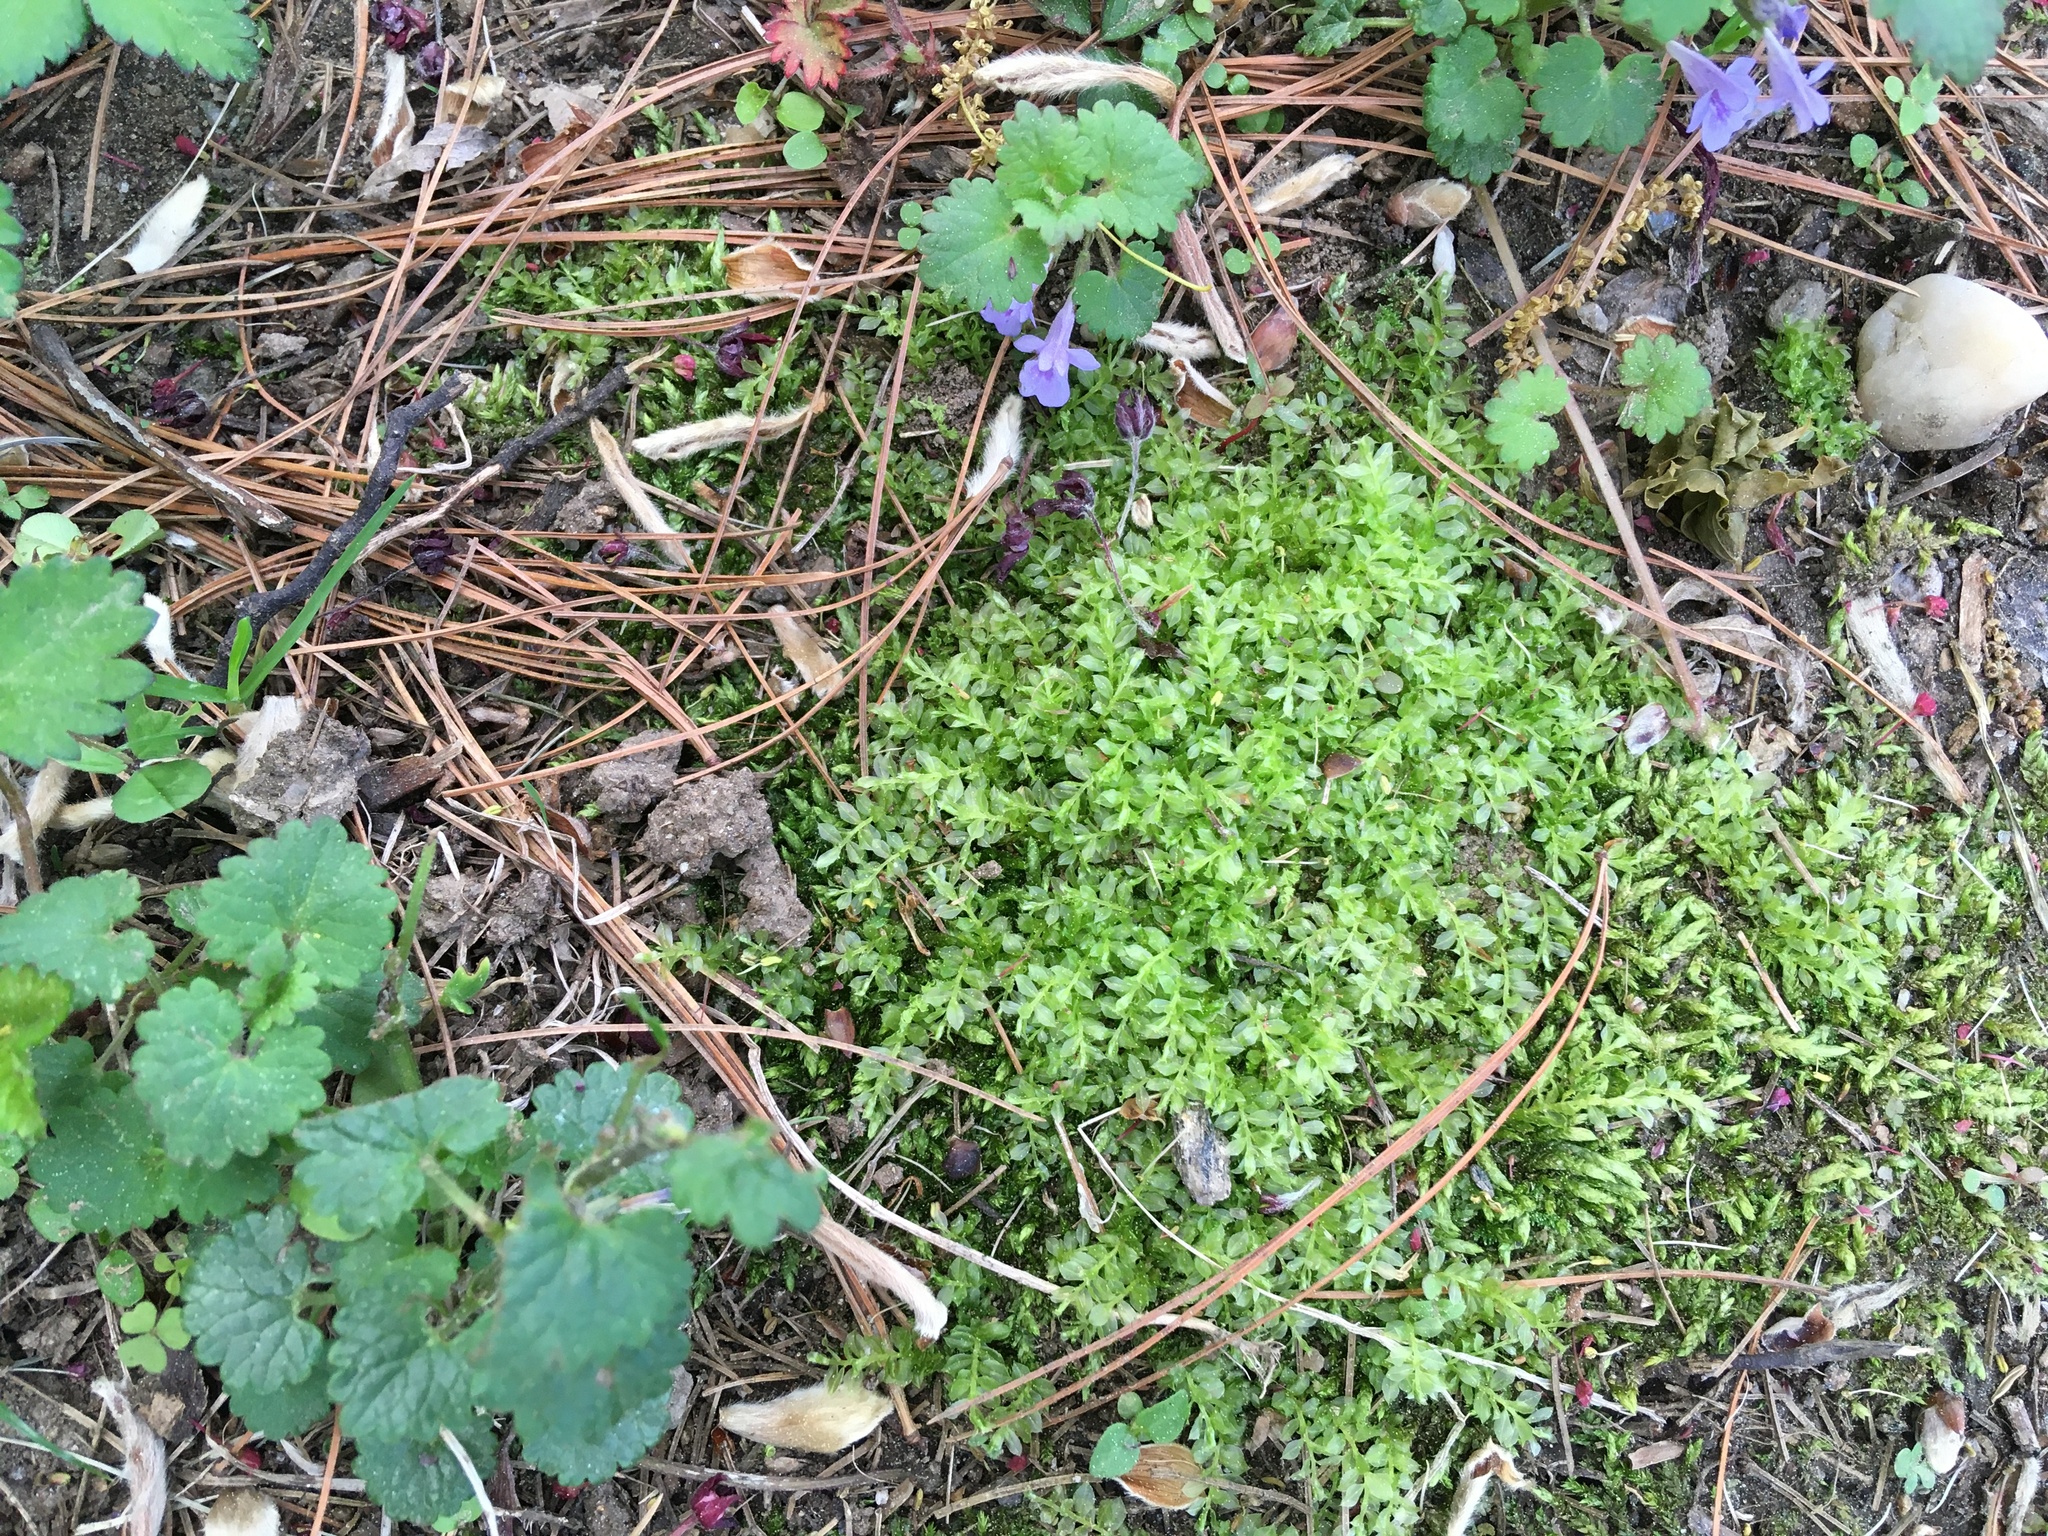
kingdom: Plantae
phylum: Bryophyta
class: Bryopsida
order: Bryales
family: Mniaceae
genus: Plagiomnium
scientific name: Plagiomnium cuspidatum
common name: Woodsy leafy moss
